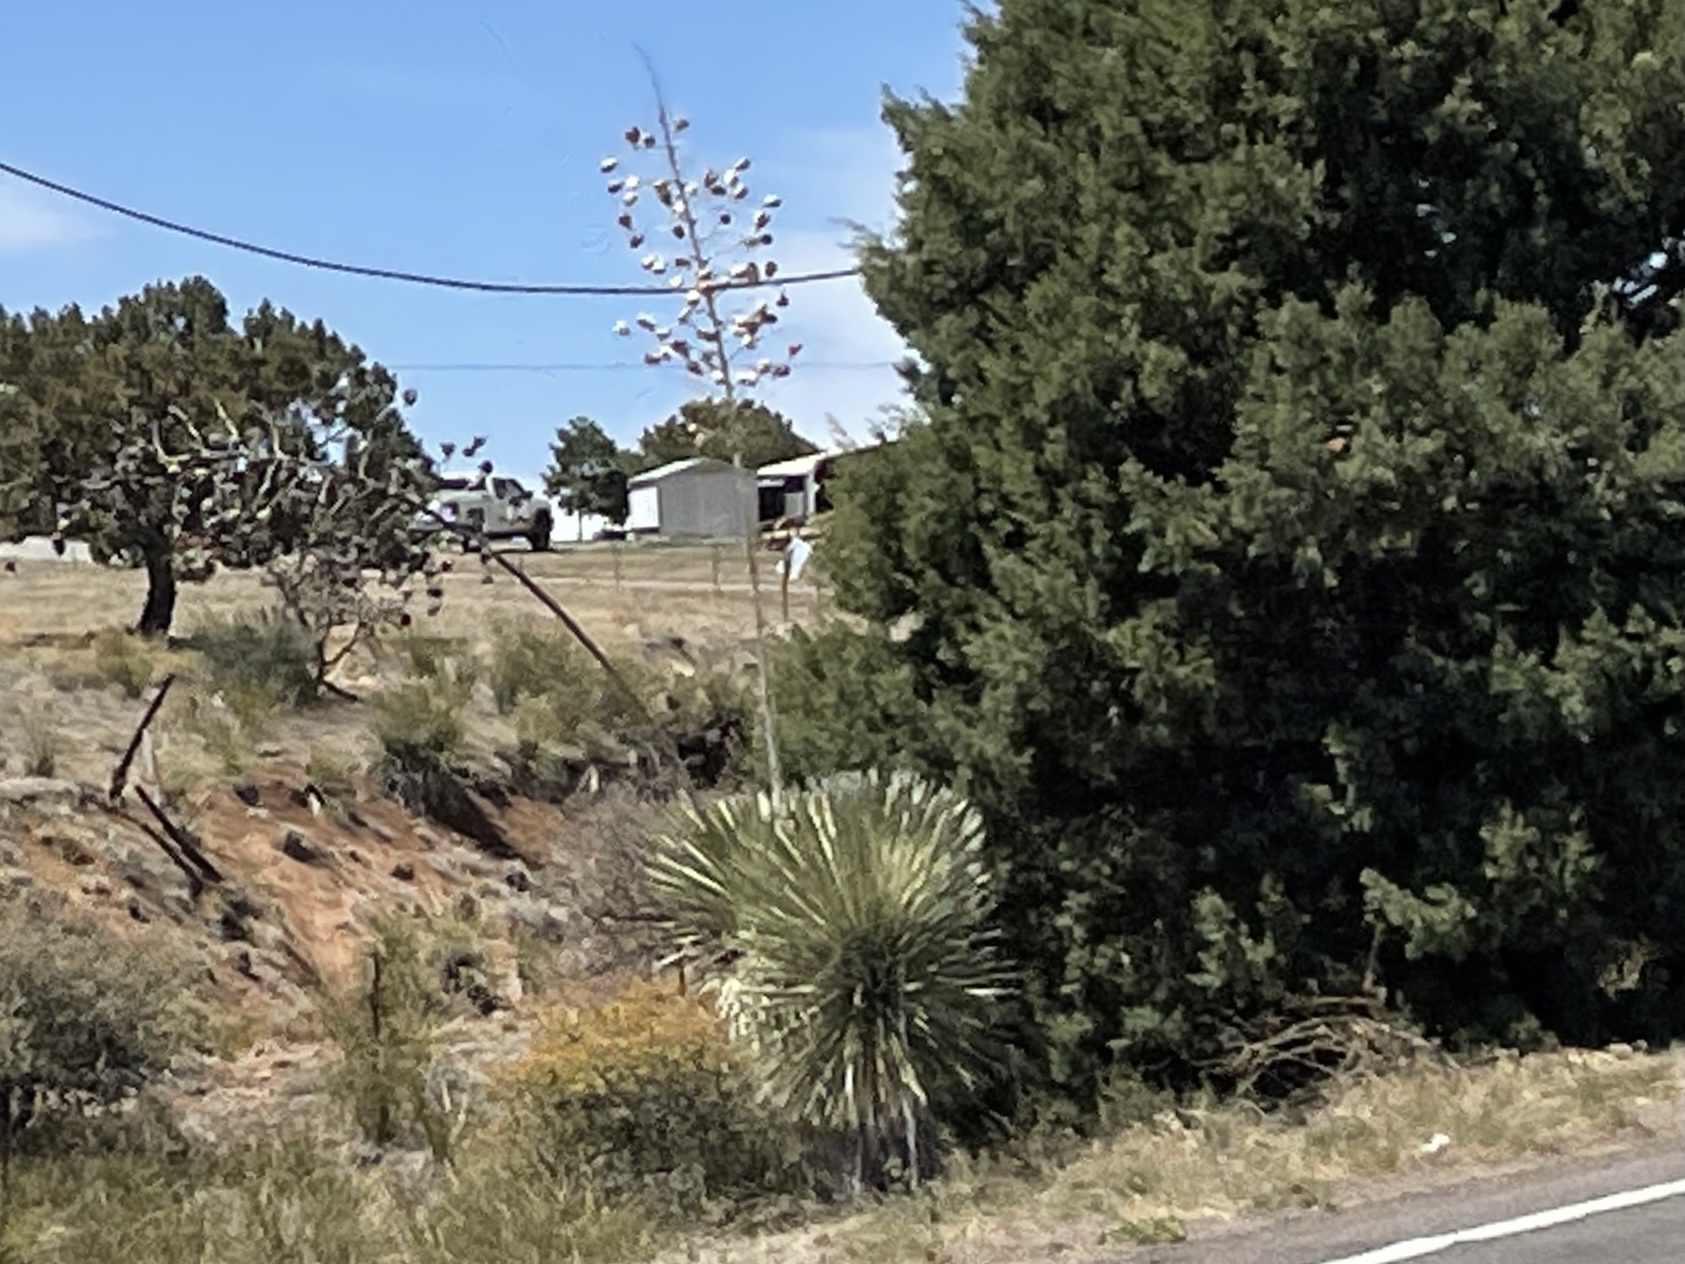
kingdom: Plantae
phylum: Tracheophyta
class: Liliopsida
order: Asparagales
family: Asparagaceae
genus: Yucca
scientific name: Yucca elata
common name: Palmella
